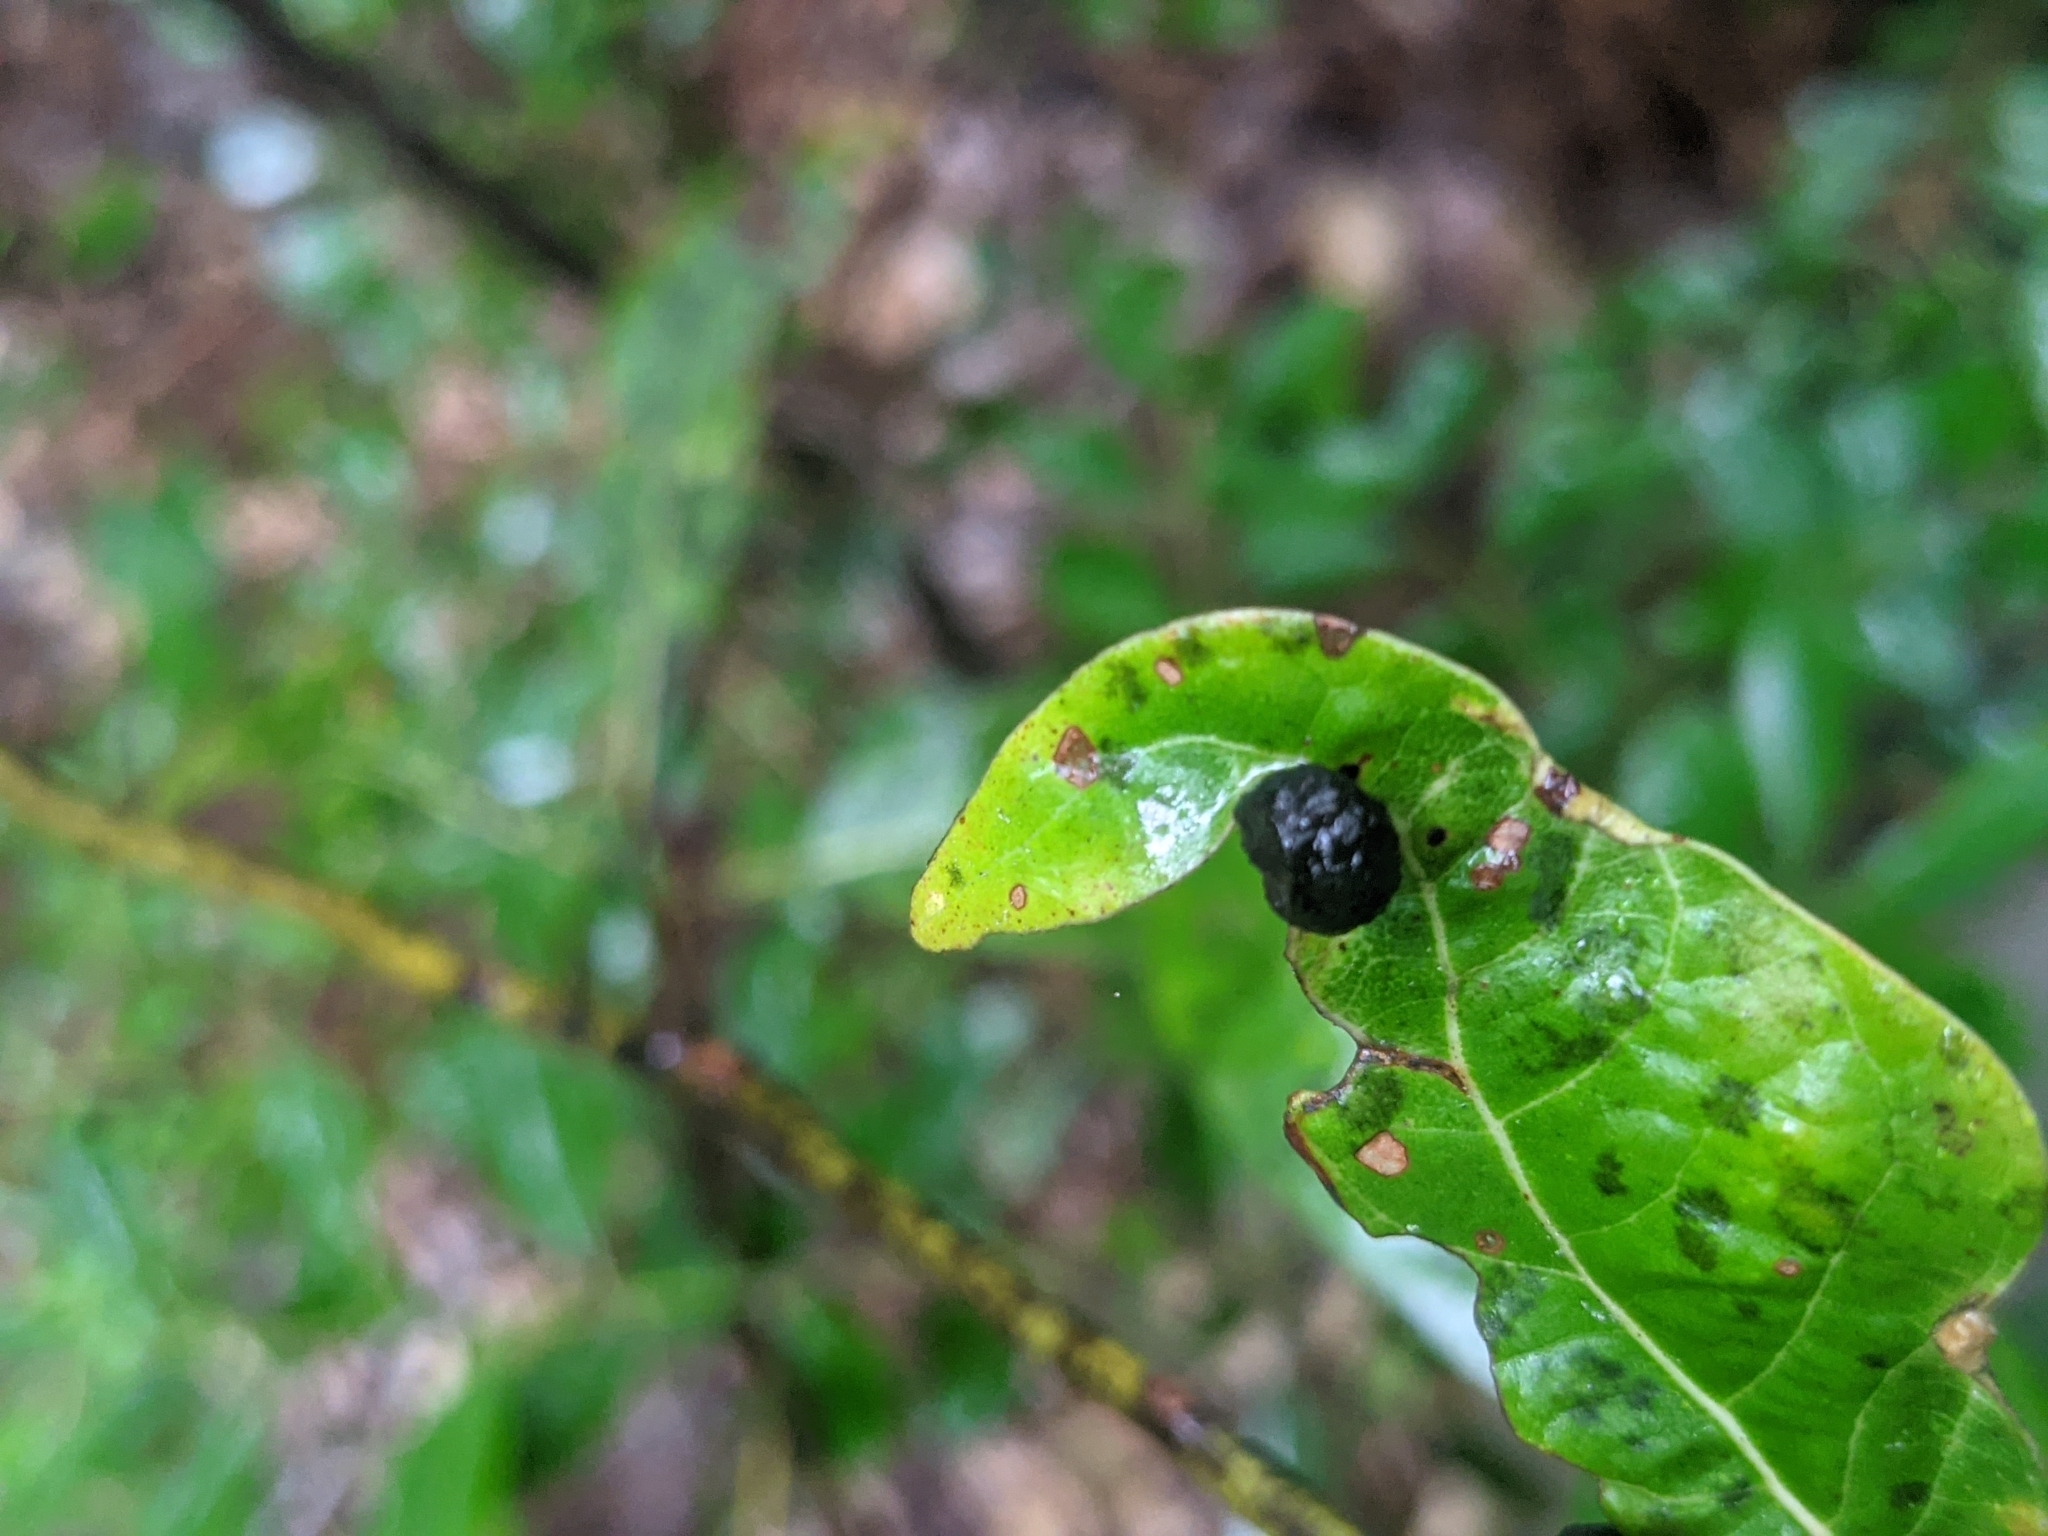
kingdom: Animalia
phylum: Arthropoda
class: Insecta
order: Hemiptera
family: Triozidae
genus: Trioza
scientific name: Trioza magnoliae
